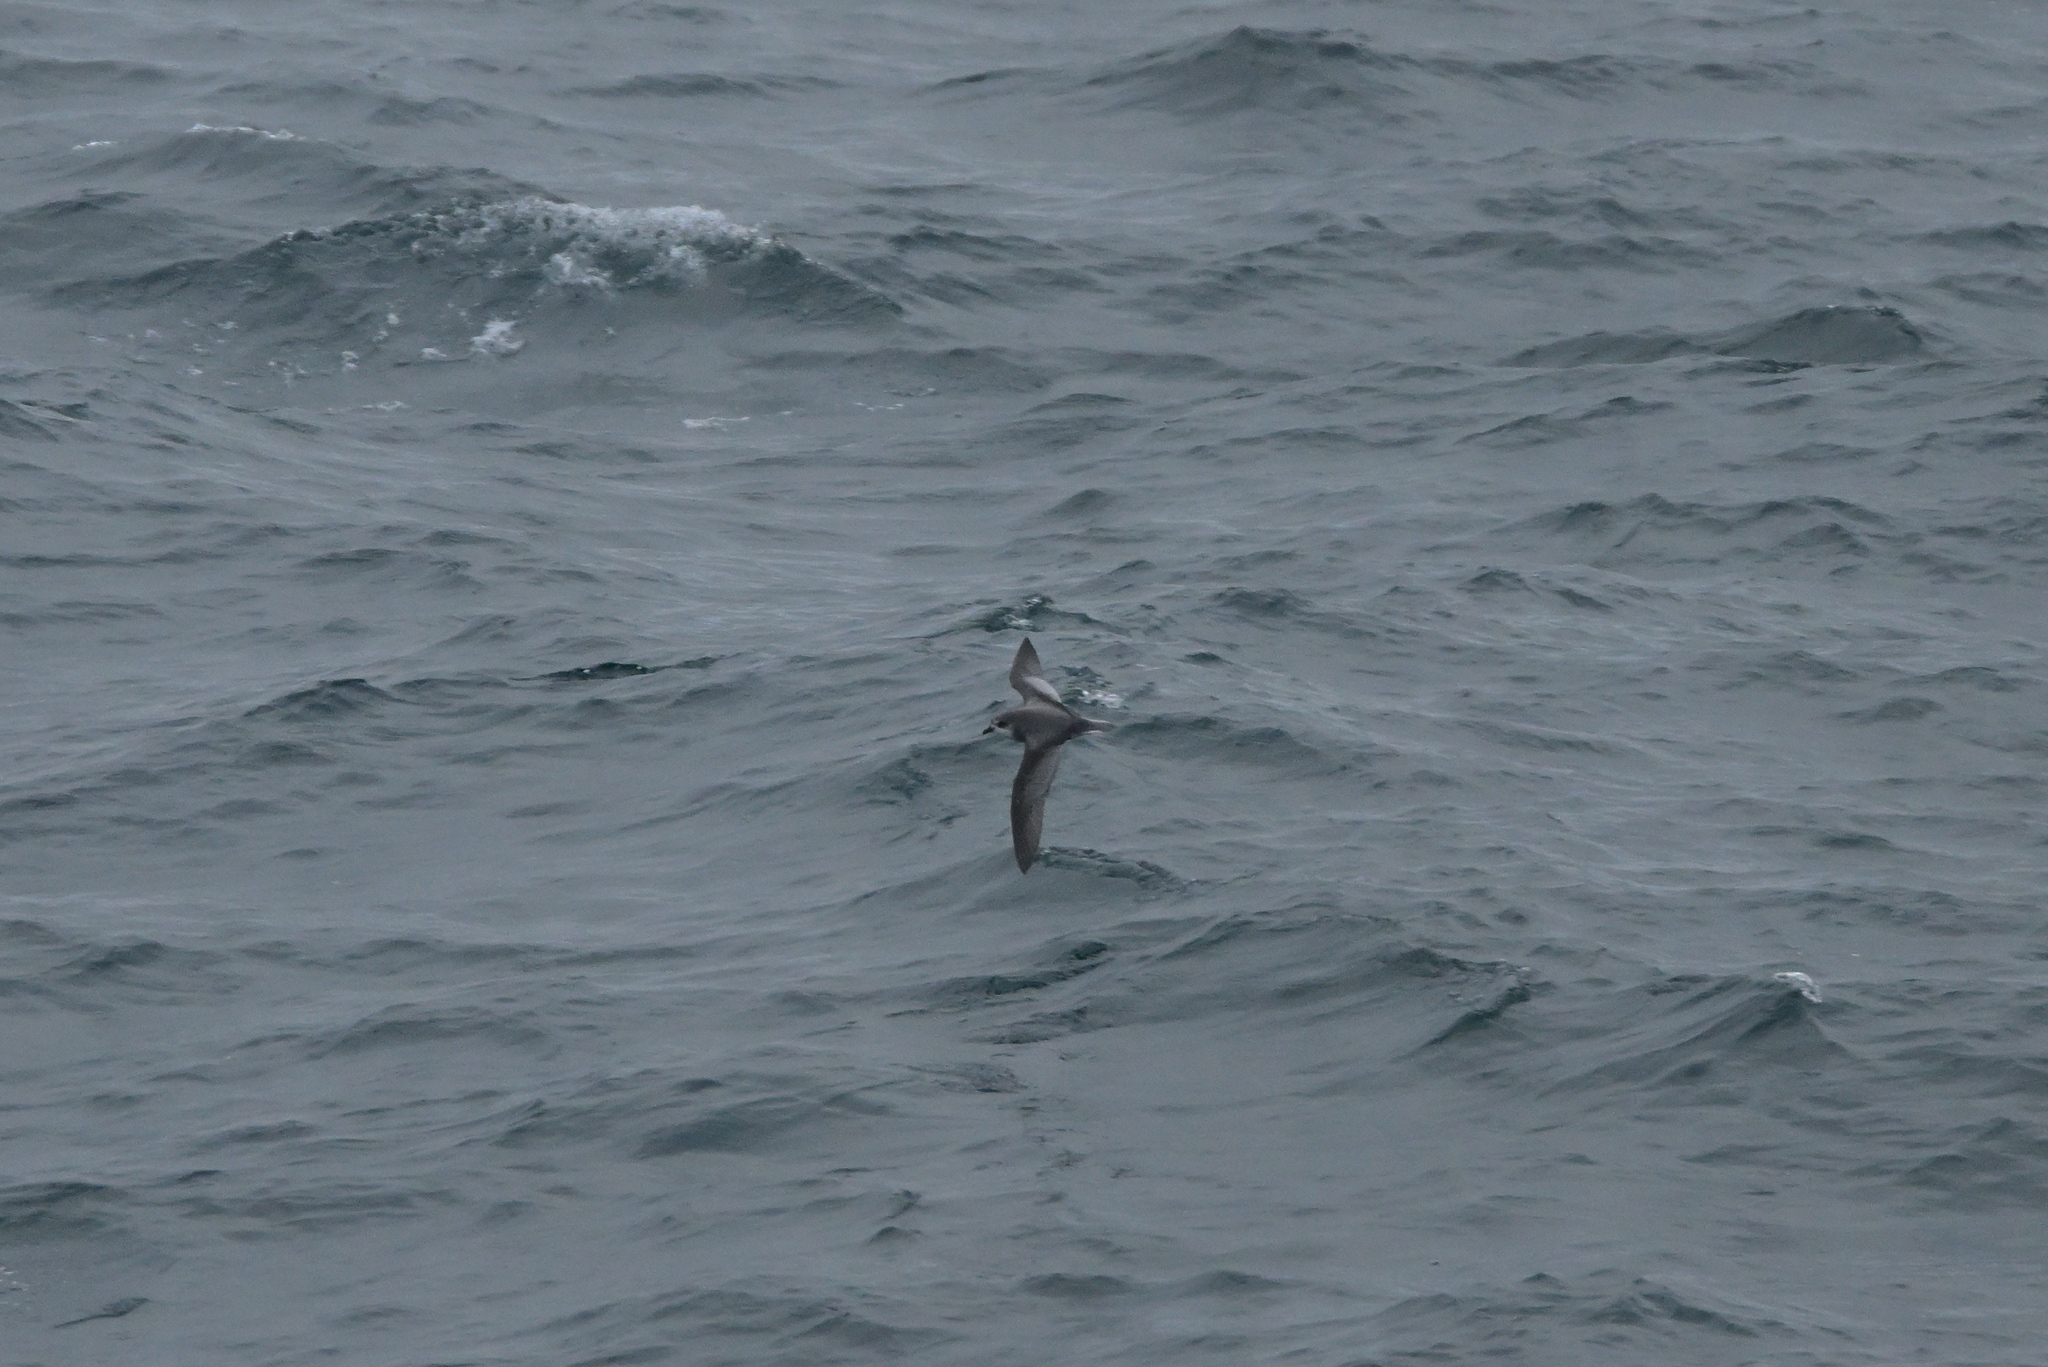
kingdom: Animalia
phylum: Chordata
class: Aves
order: Procellariiformes
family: Procellariidae
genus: Pterodroma
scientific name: Pterodroma inexpectata
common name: Mottled petrel
